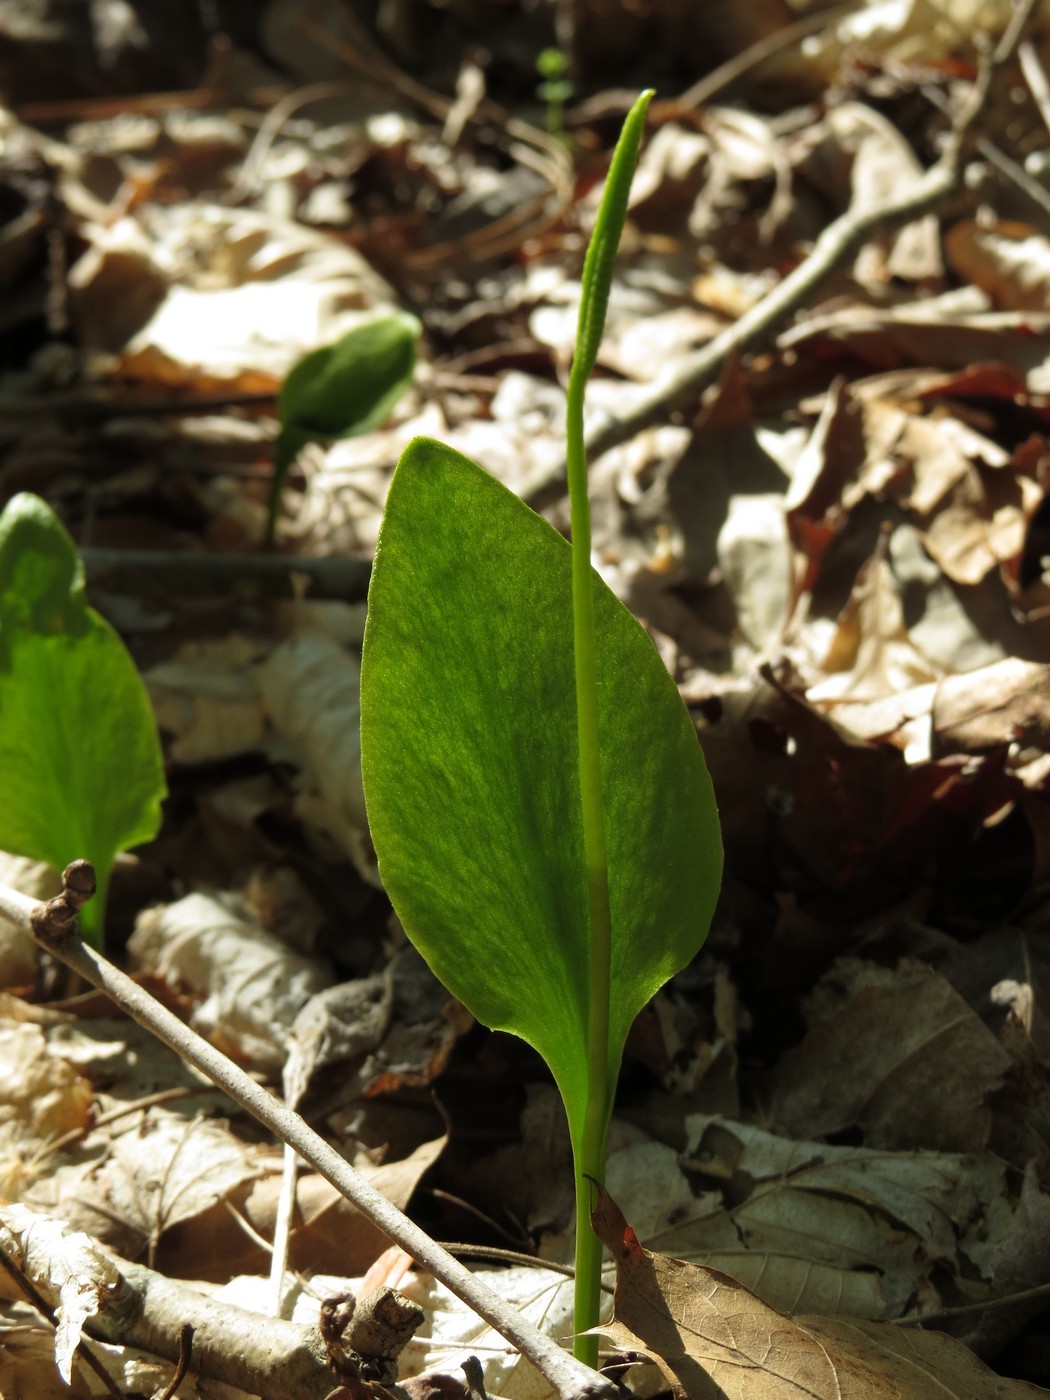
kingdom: Plantae
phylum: Tracheophyta
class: Polypodiopsida
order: Ophioglossales
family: Ophioglossaceae
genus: Ophioglossum
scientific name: Ophioglossum vulgatum
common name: Adder's-tongue
